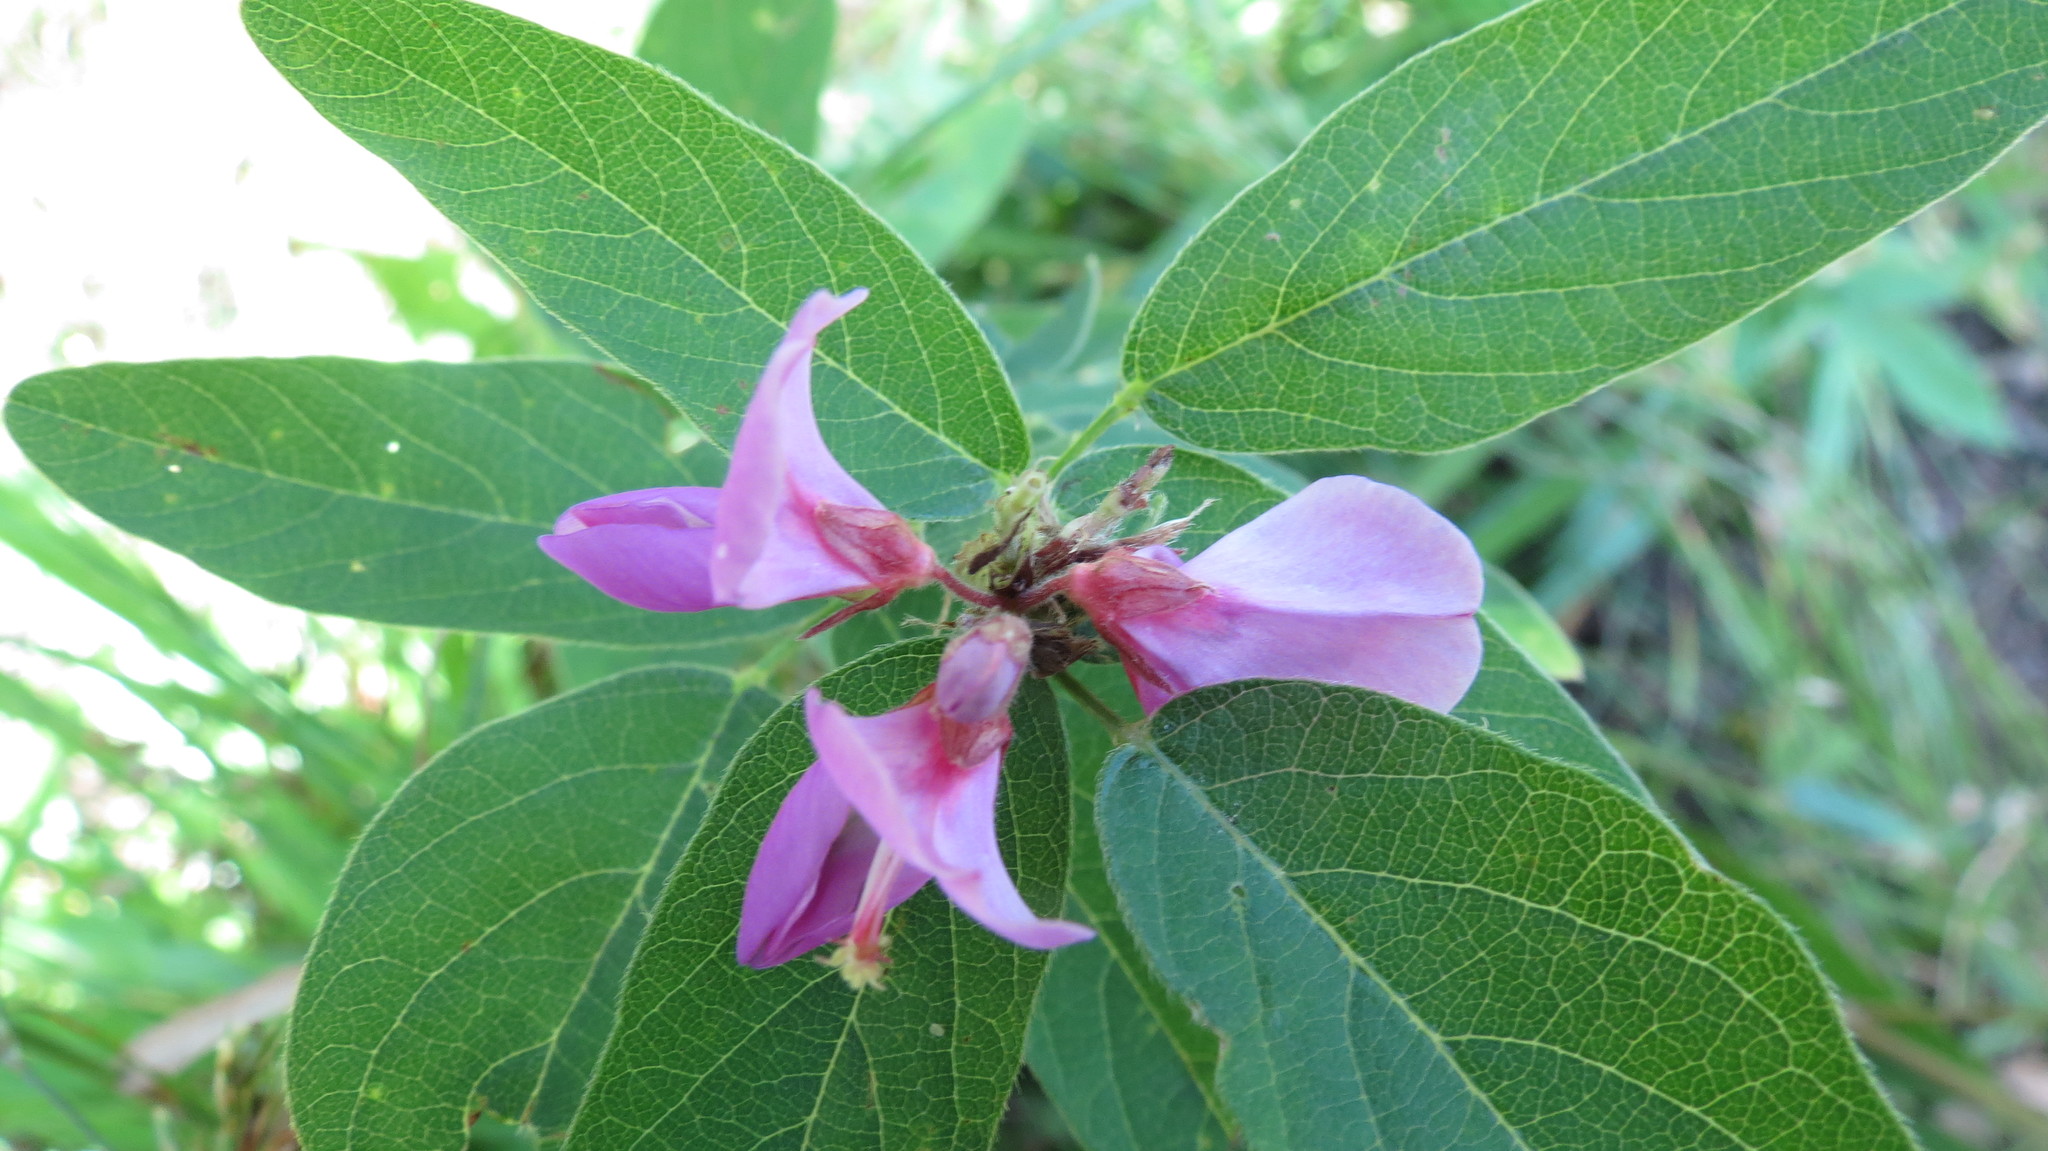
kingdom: Plantae
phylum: Tracheophyta
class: Magnoliopsida
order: Fabales
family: Fabaceae
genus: Desmodium
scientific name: Desmodium canadense
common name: Canada tick-trefoil
